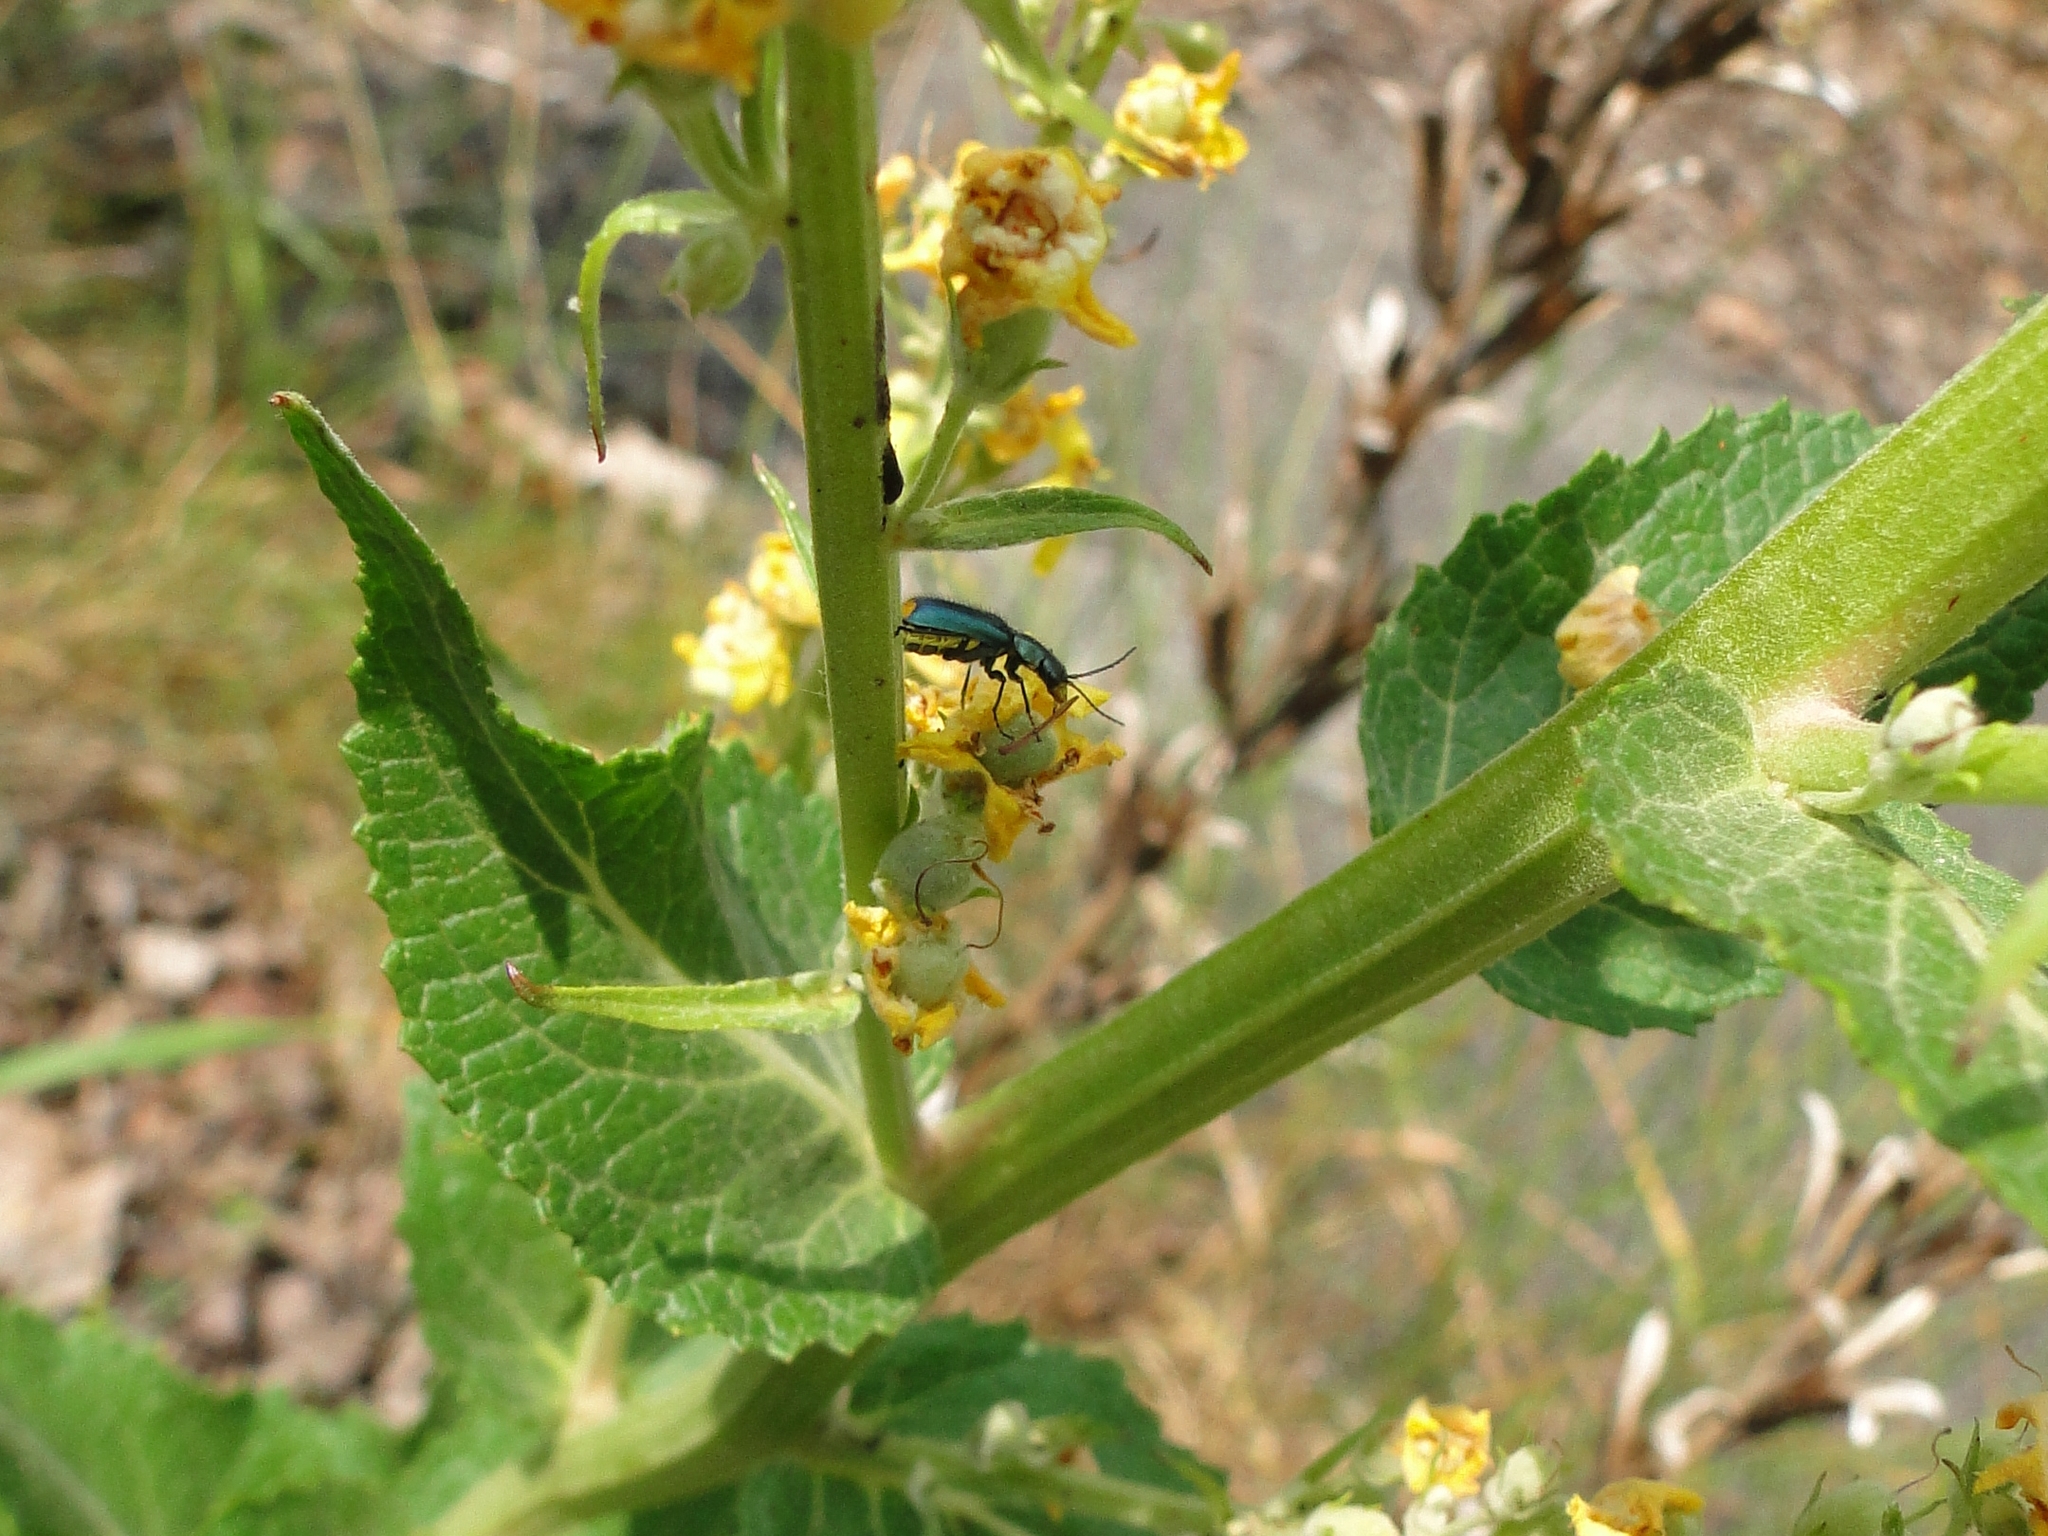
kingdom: Animalia
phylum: Arthropoda
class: Insecta
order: Coleoptera
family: Malachiidae
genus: Clanoptilus
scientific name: Clanoptilus marginellus
